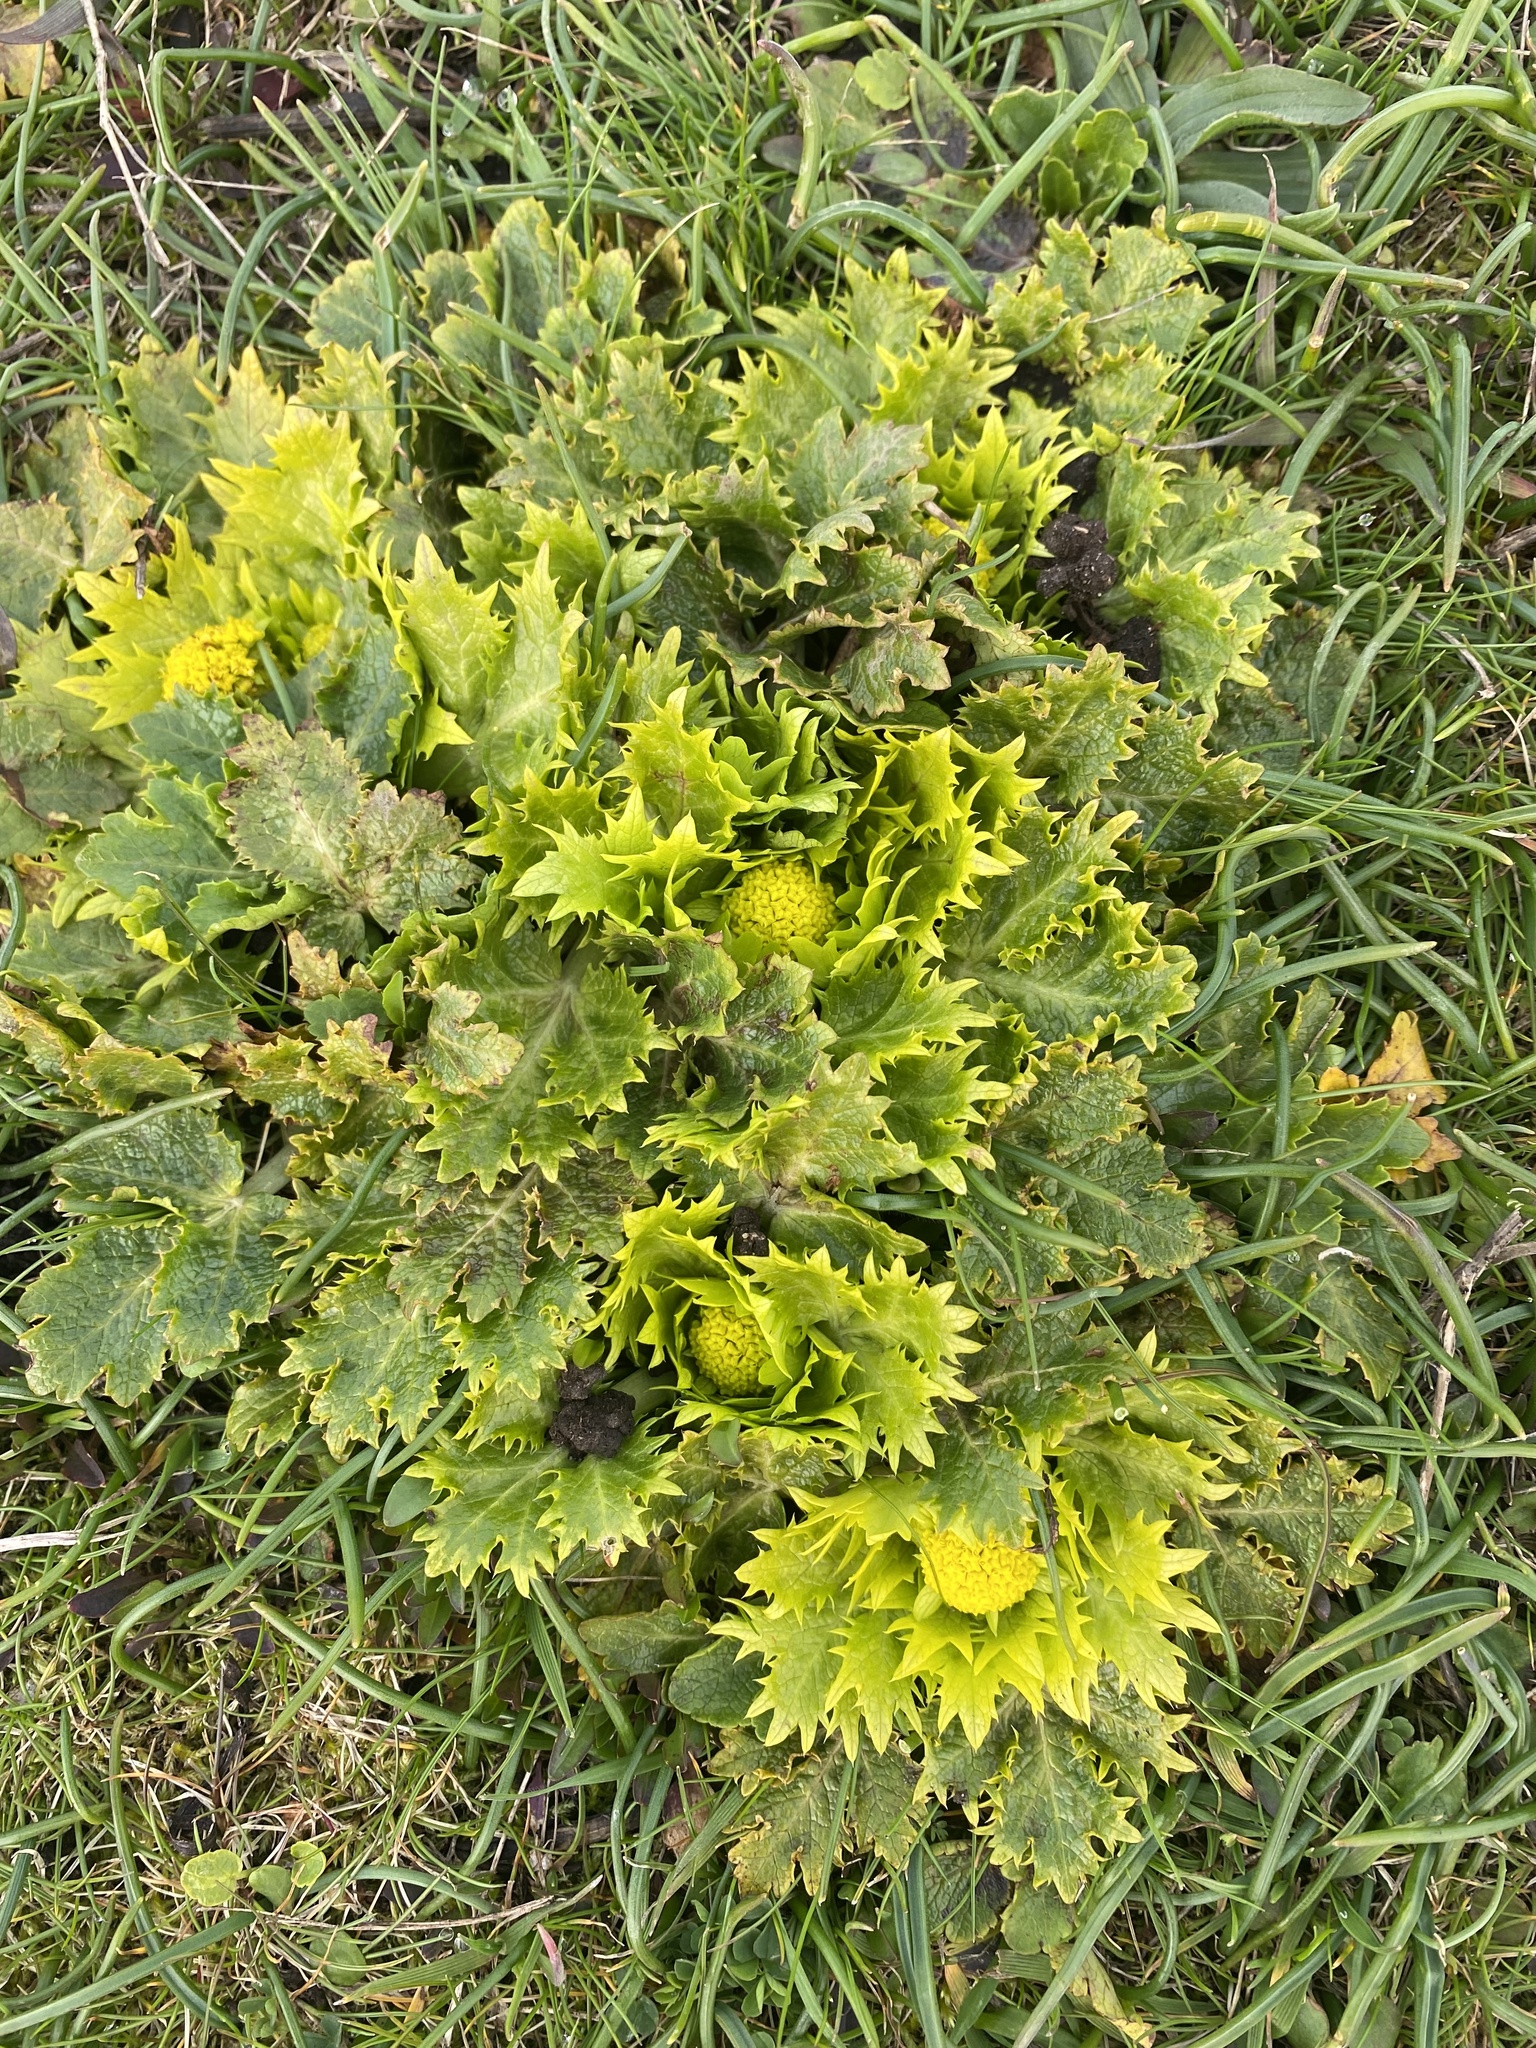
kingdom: Plantae
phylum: Tracheophyta
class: Magnoliopsida
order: Apiales
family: Apiaceae
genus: Sanicula
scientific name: Sanicula arctopoides
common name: Footsteps-of-spring
